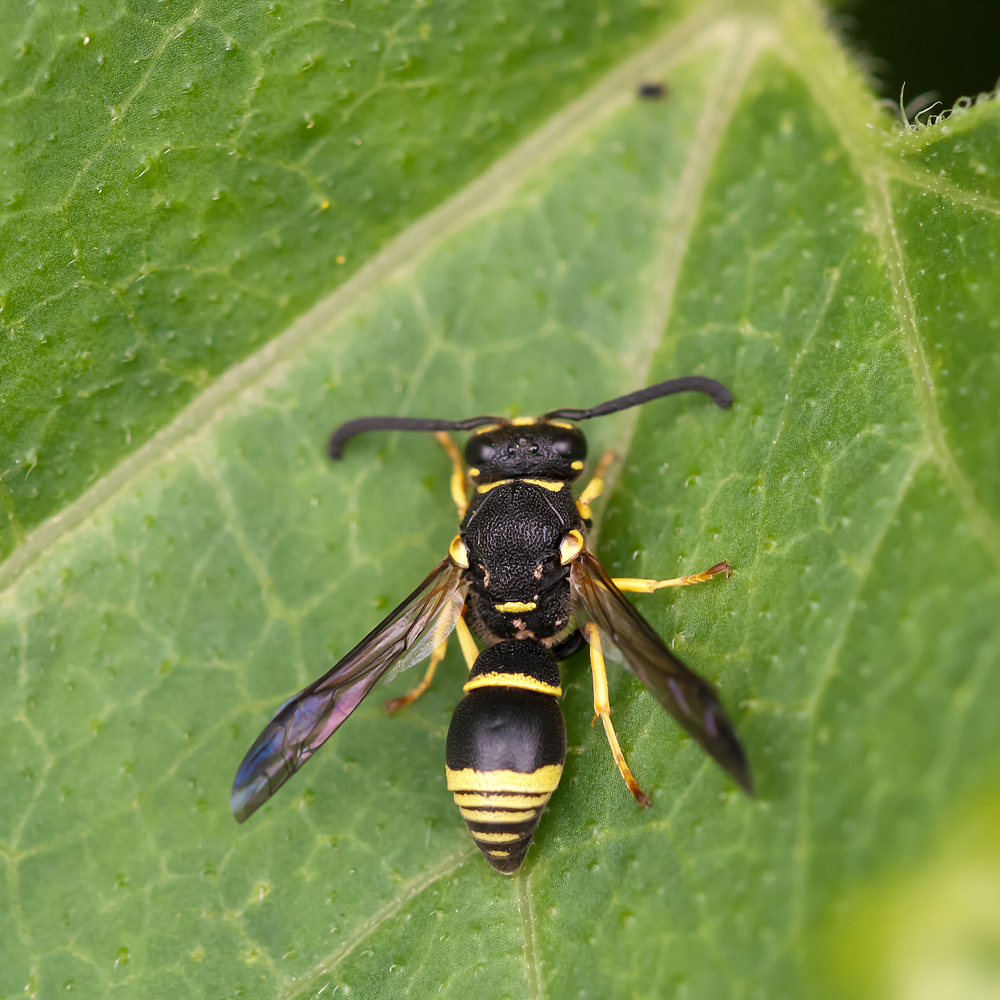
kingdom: Animalia
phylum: Arthropoda
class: Insecta
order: Hymenoptera
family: Eumenidae
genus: Allodynerus
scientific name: Allodynerus delphinalis
